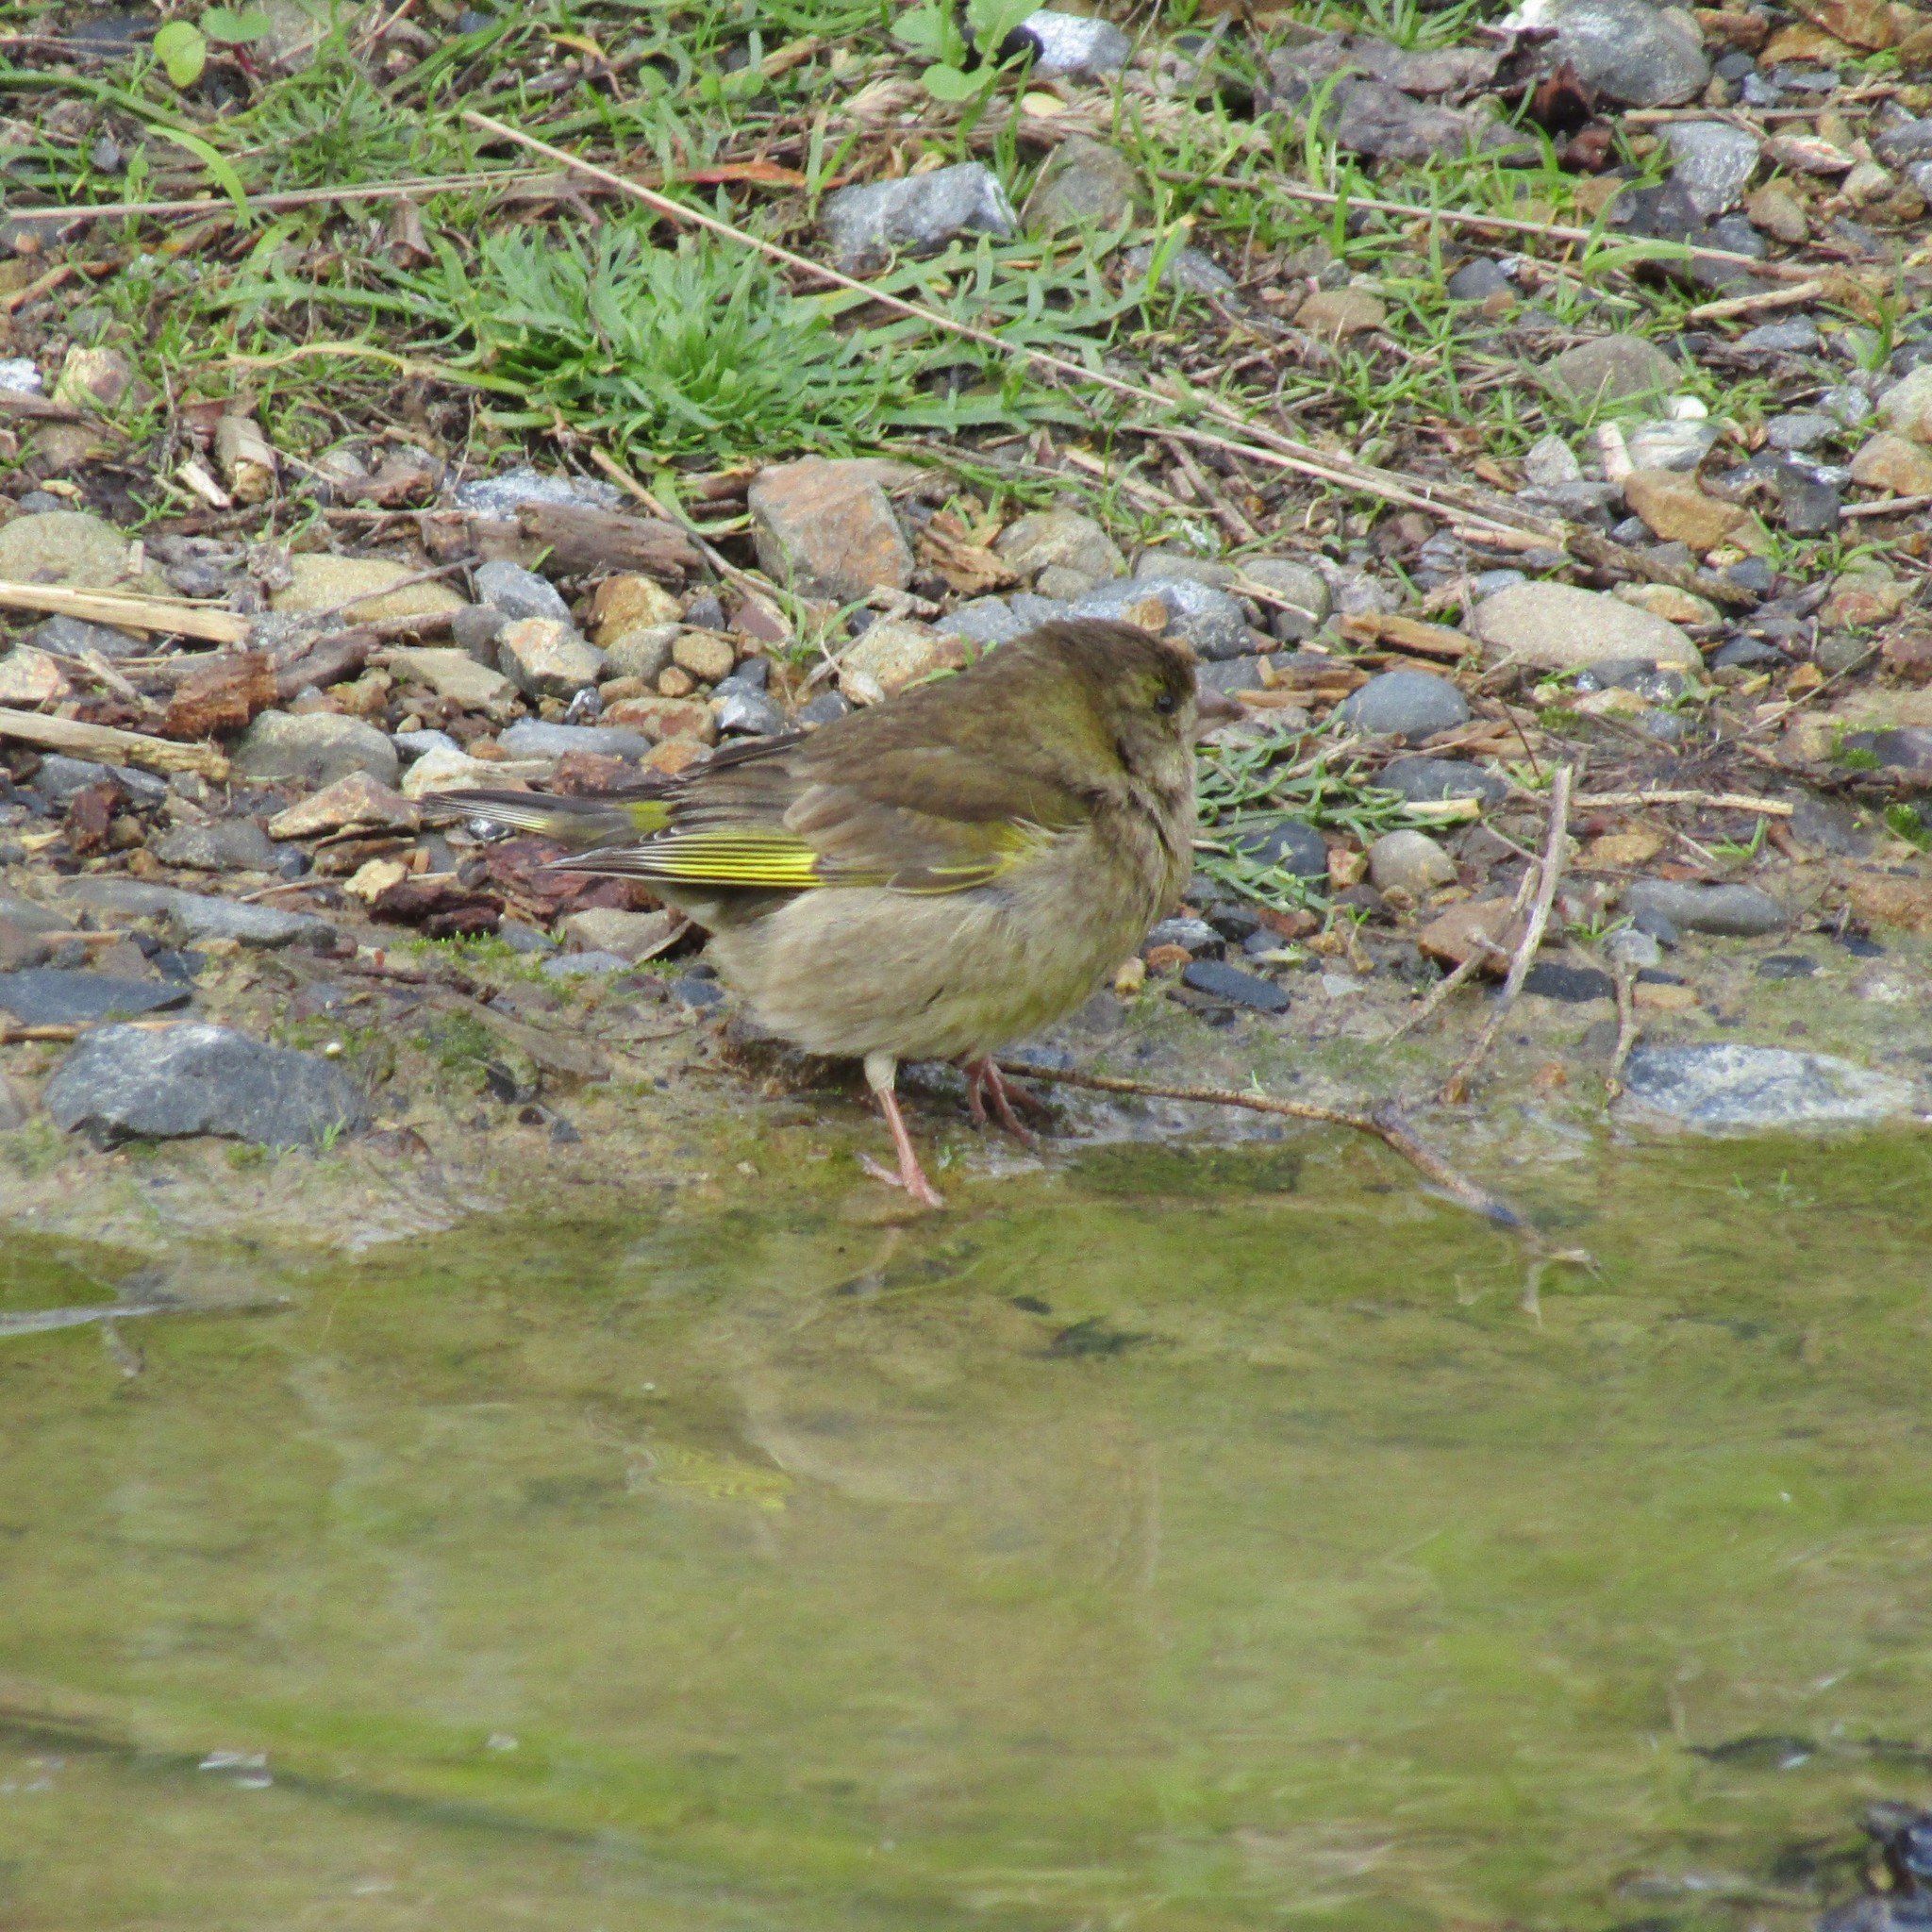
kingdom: Plantae
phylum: Tracheophyta
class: Liliopsida
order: Poales
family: Poaceae
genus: Chloris
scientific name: Chloris chloris
